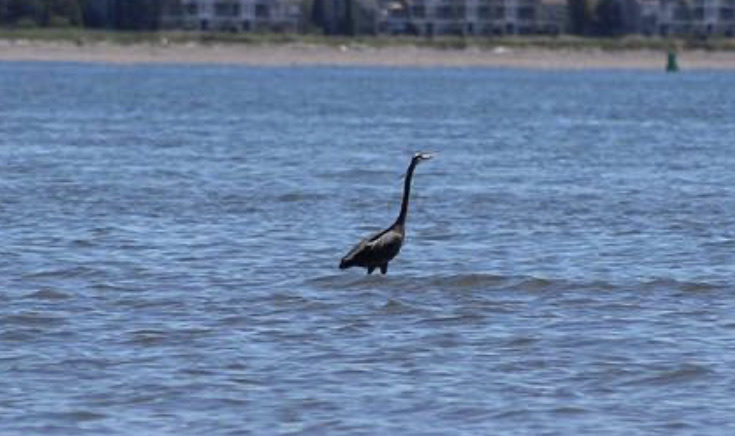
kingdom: Animalia
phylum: Chordata
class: Aves
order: Pelecaniformes
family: Ardeidae
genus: Ardea
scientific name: Ardea herodias
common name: Great blue heron
